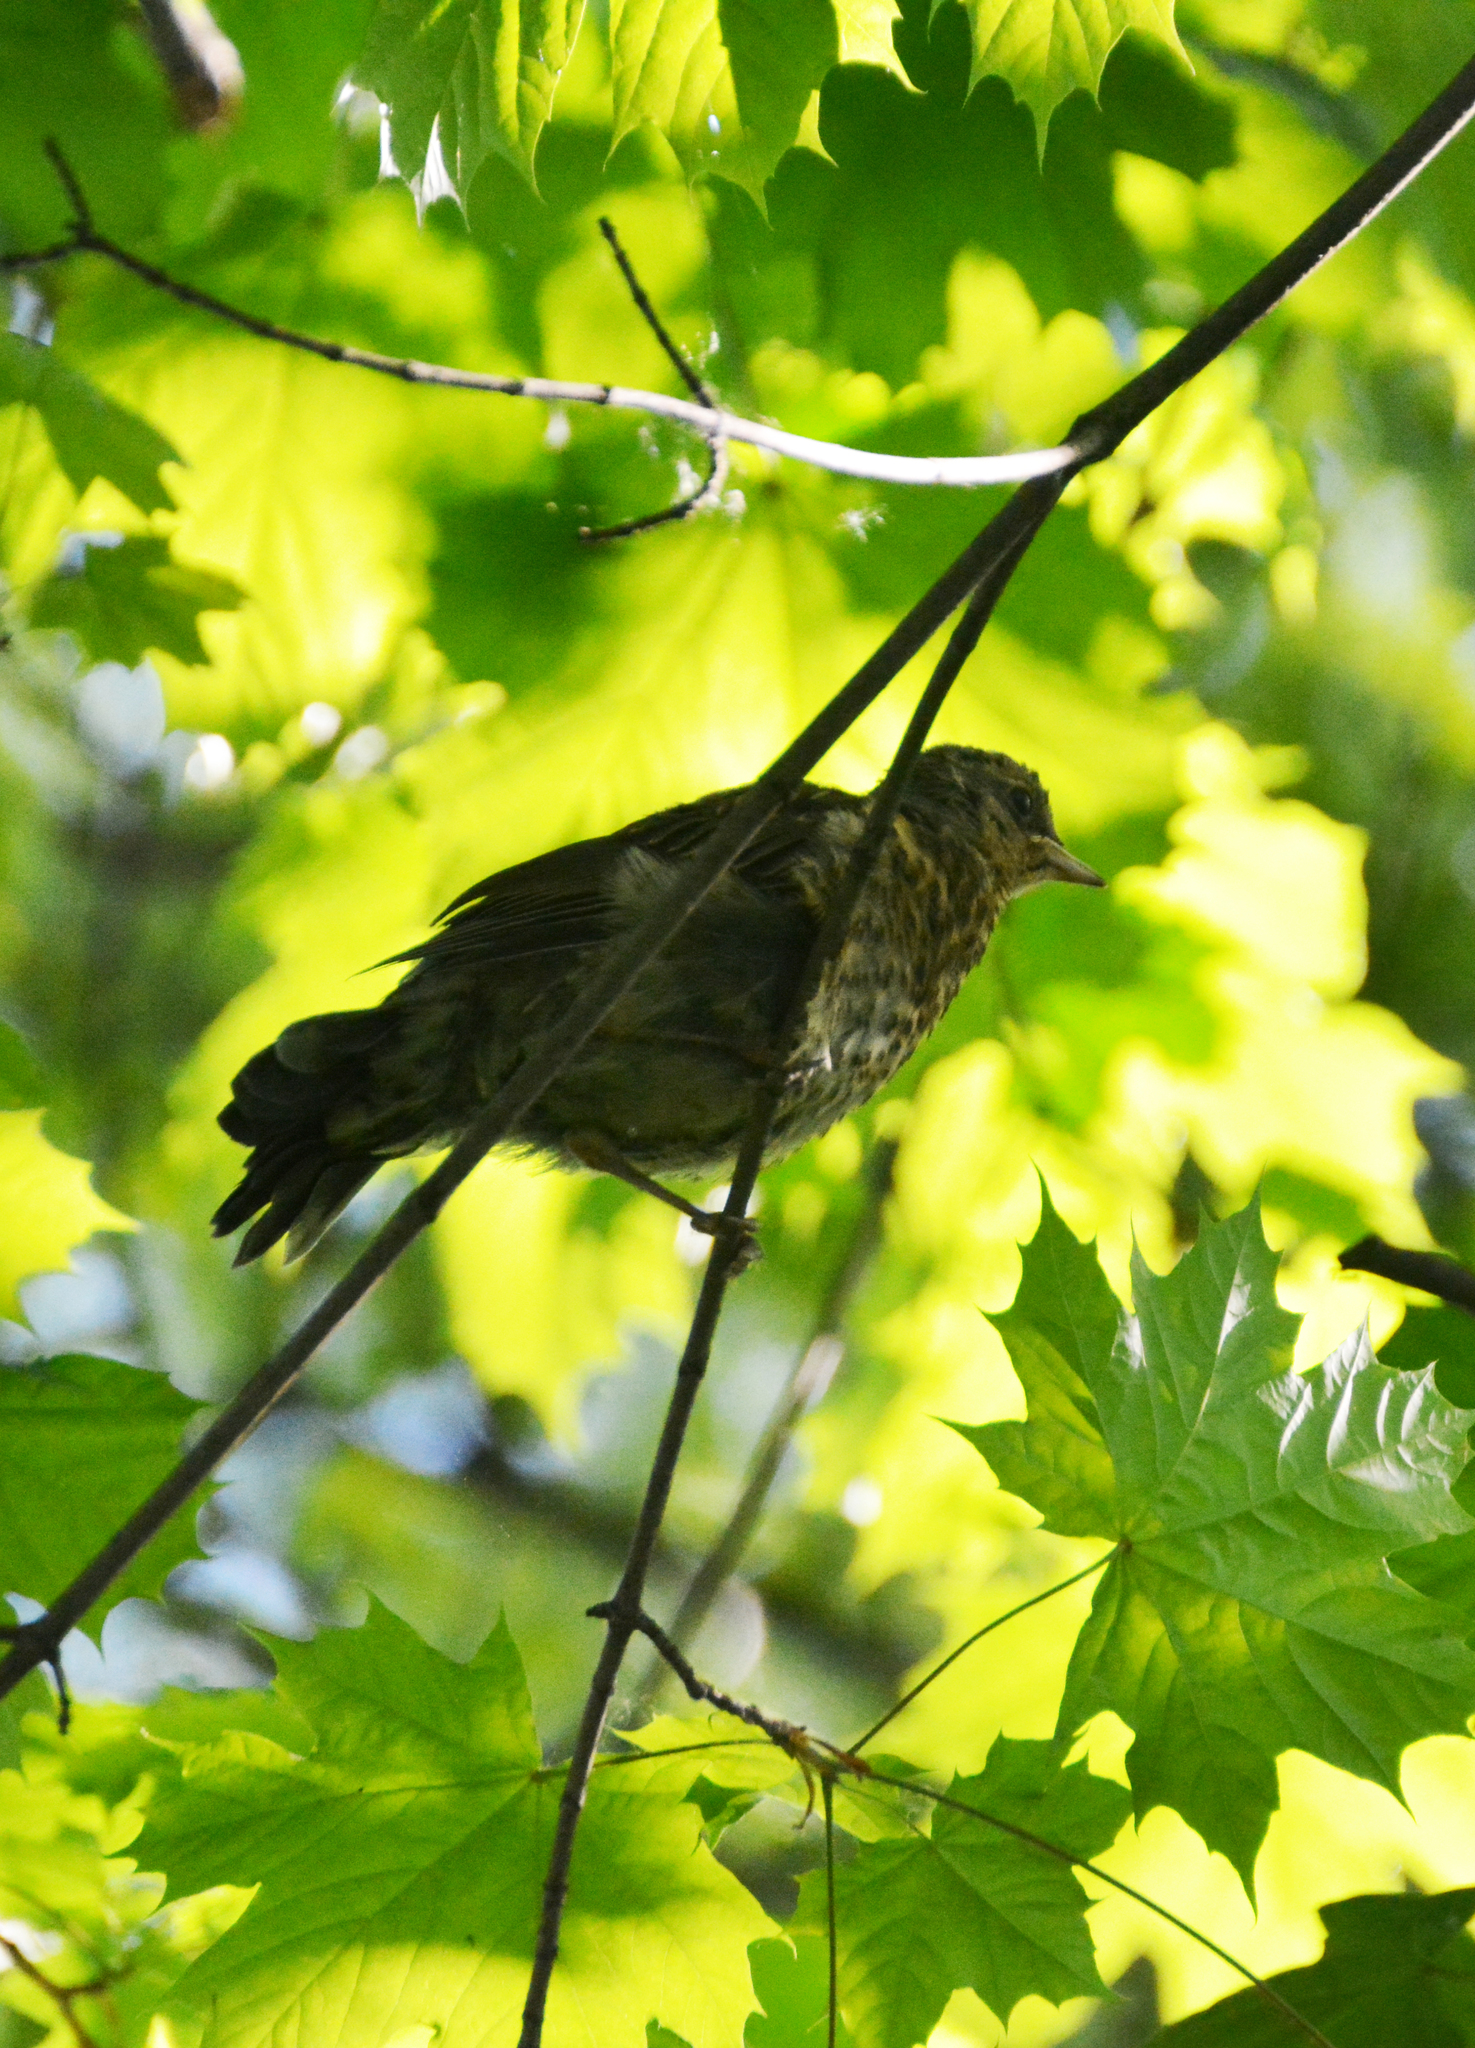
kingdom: Animalia
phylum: Chordata
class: Aves
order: Passeriformes
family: Turdidae
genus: Turdus
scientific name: Turdus pilaris
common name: Fieldfare
